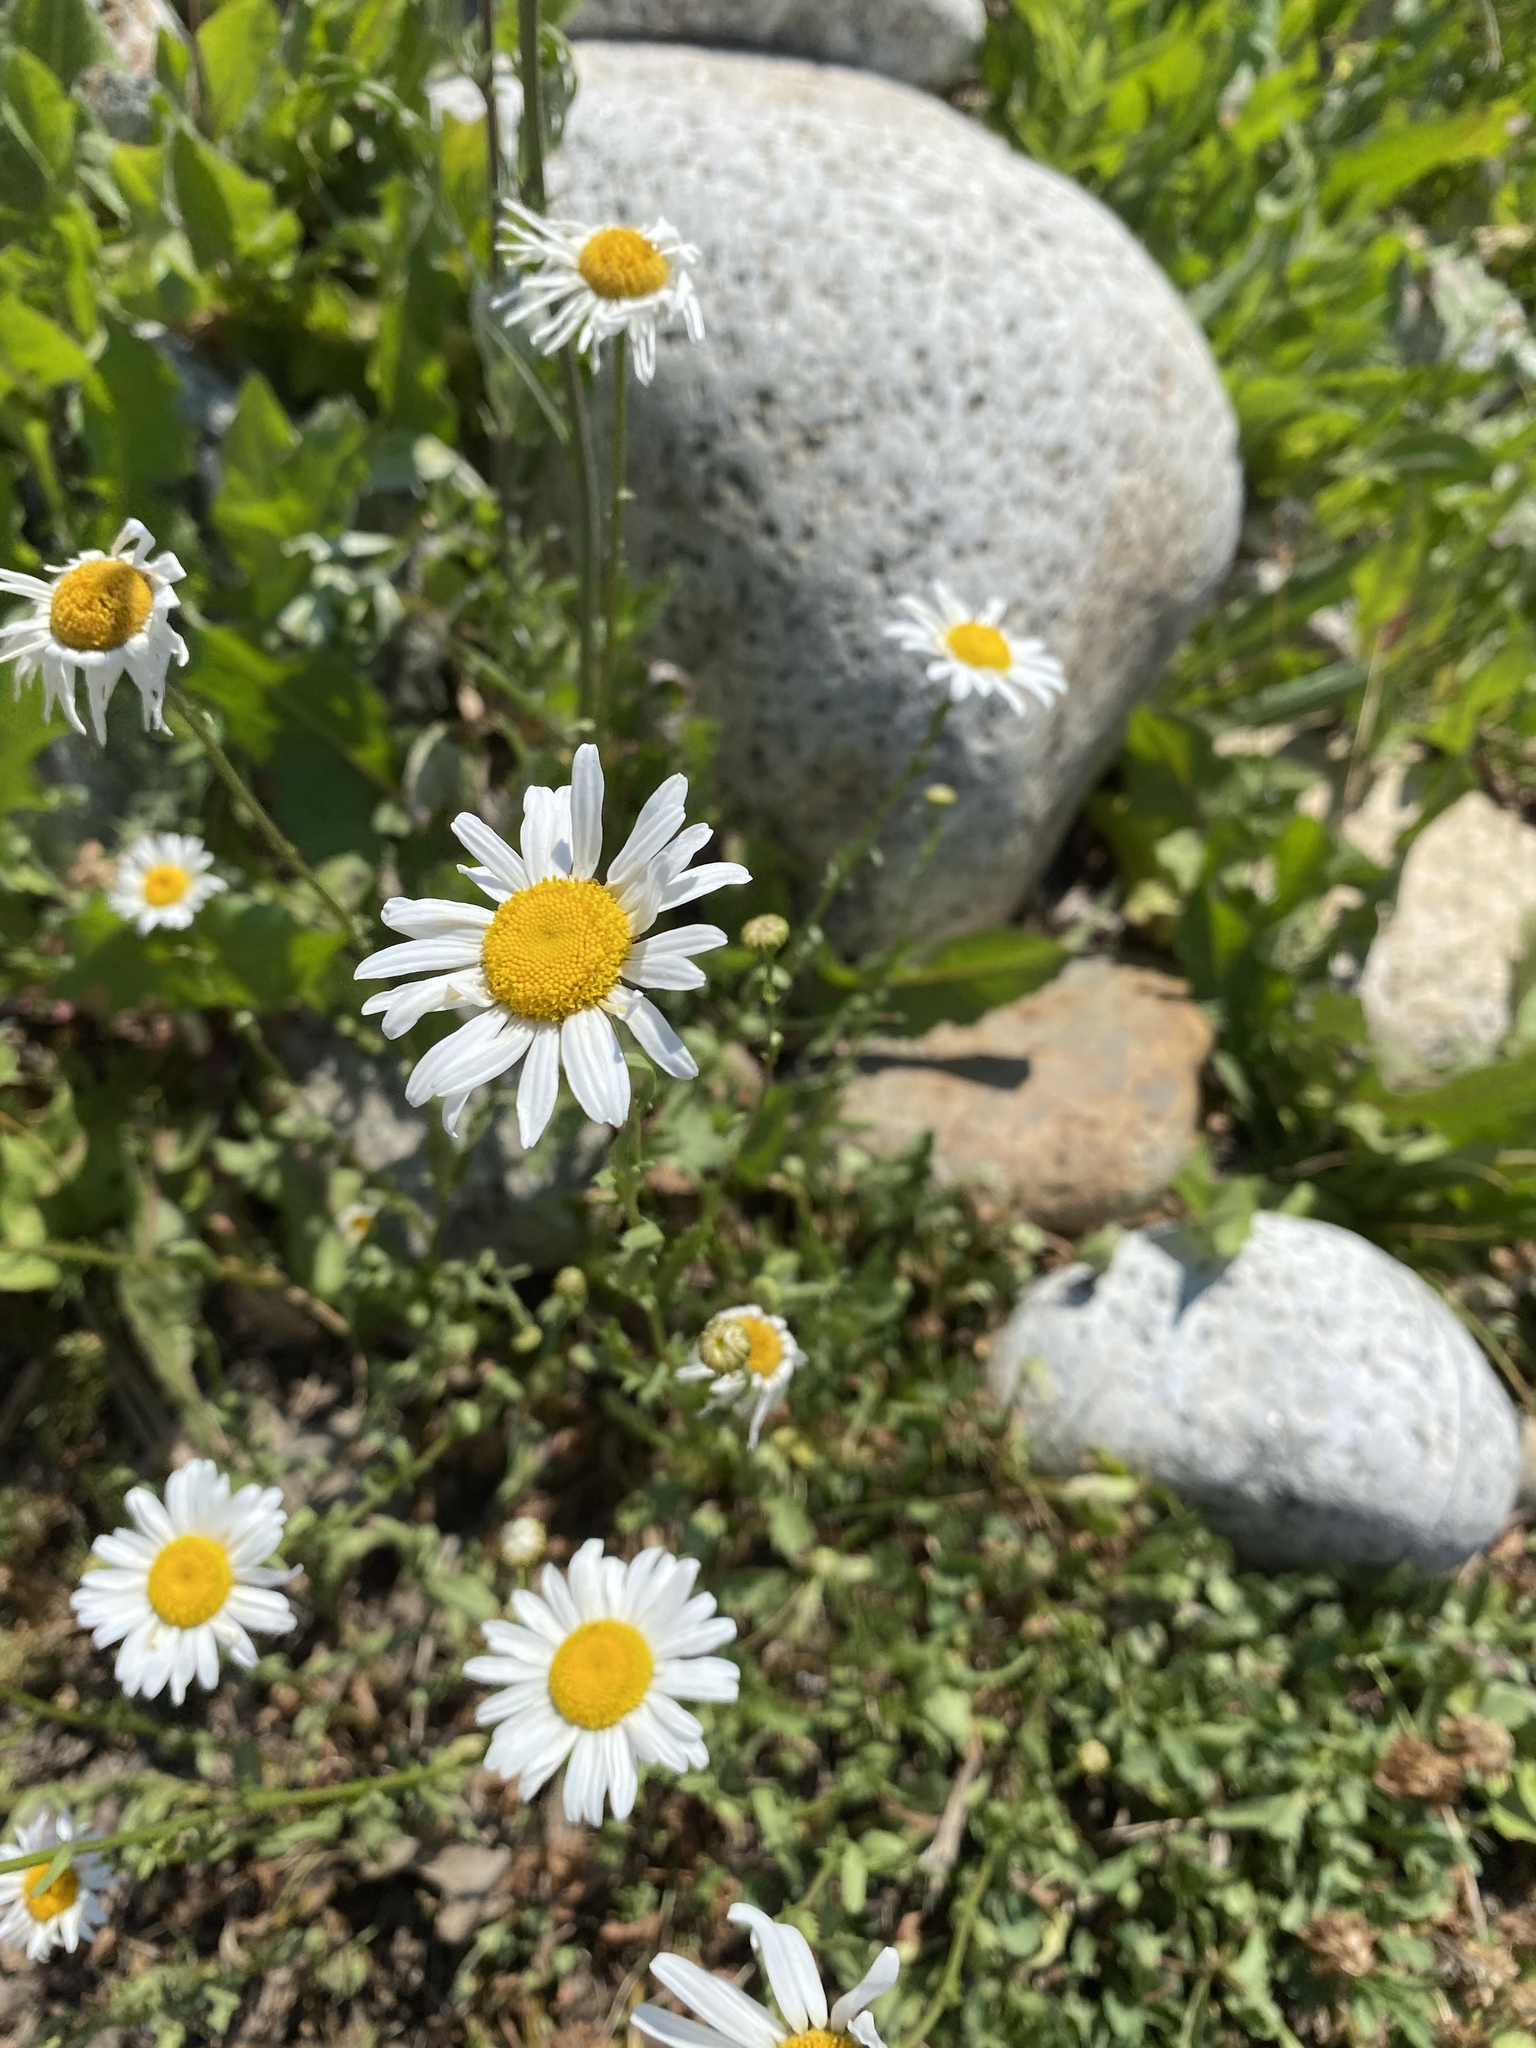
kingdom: Plantae
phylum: Tracheophyta
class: Magnoliopsida
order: Asterales
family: Asteraceae
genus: Leucanthemum
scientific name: Leucanthemum vulgare
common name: Oxeye daisy
